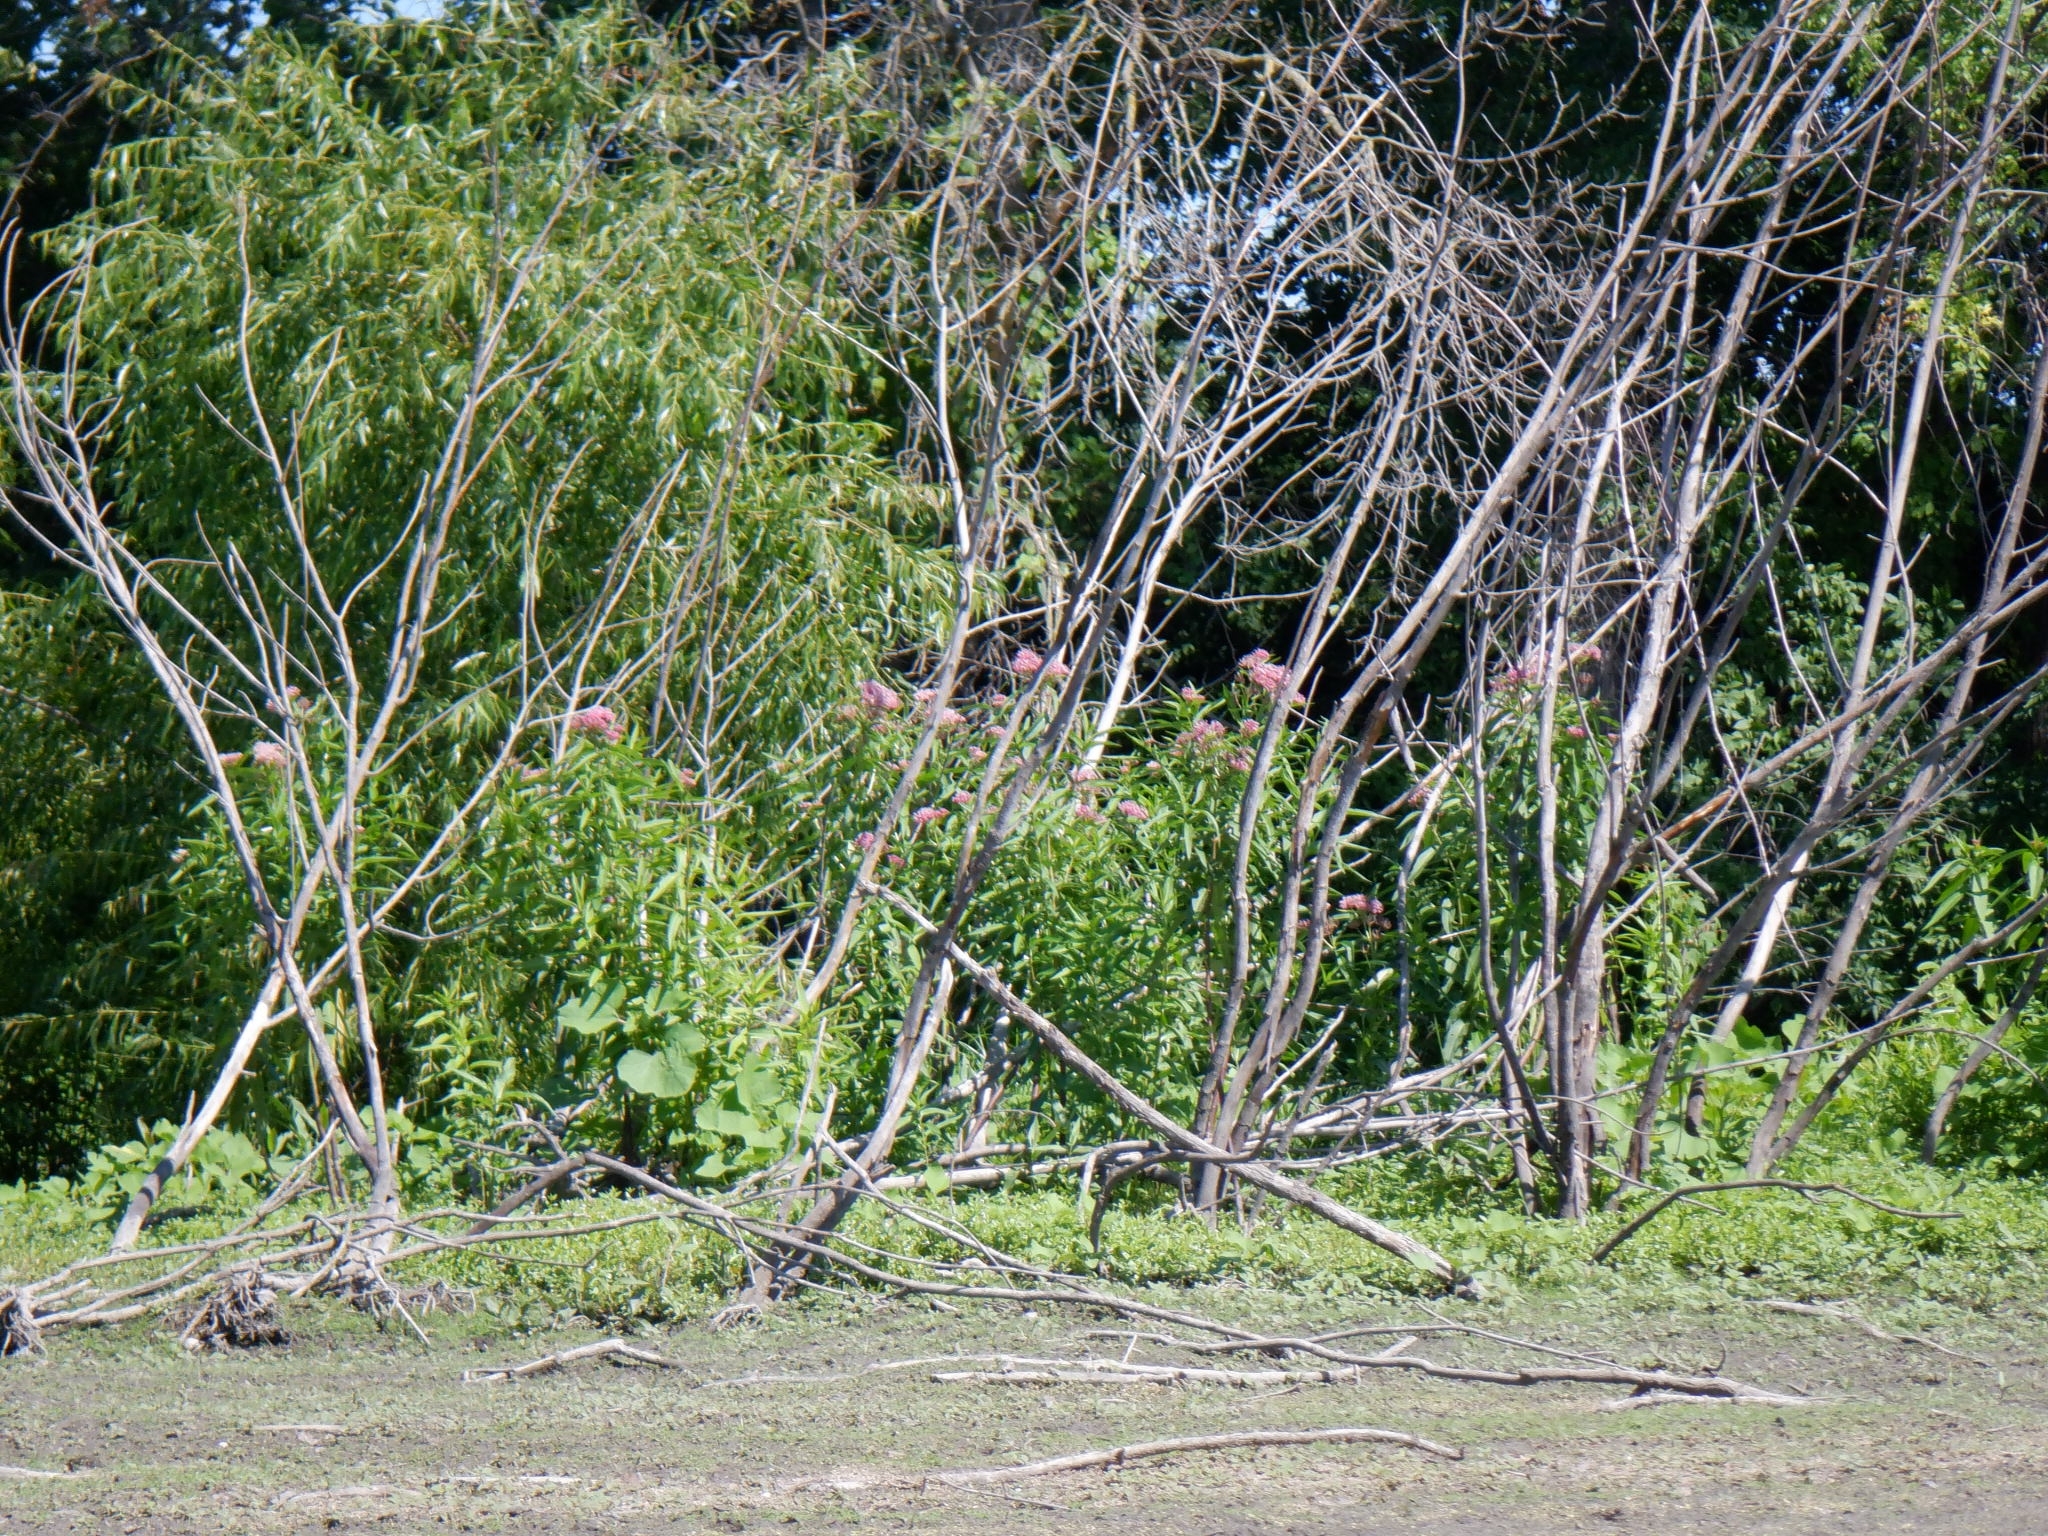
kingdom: Plantae
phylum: Tracheophyta
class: Magnoliopsida
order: Gentianales
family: Apocynaceae
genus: Asclepias
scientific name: Asclepias incarnata
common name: Swamp milkweed
